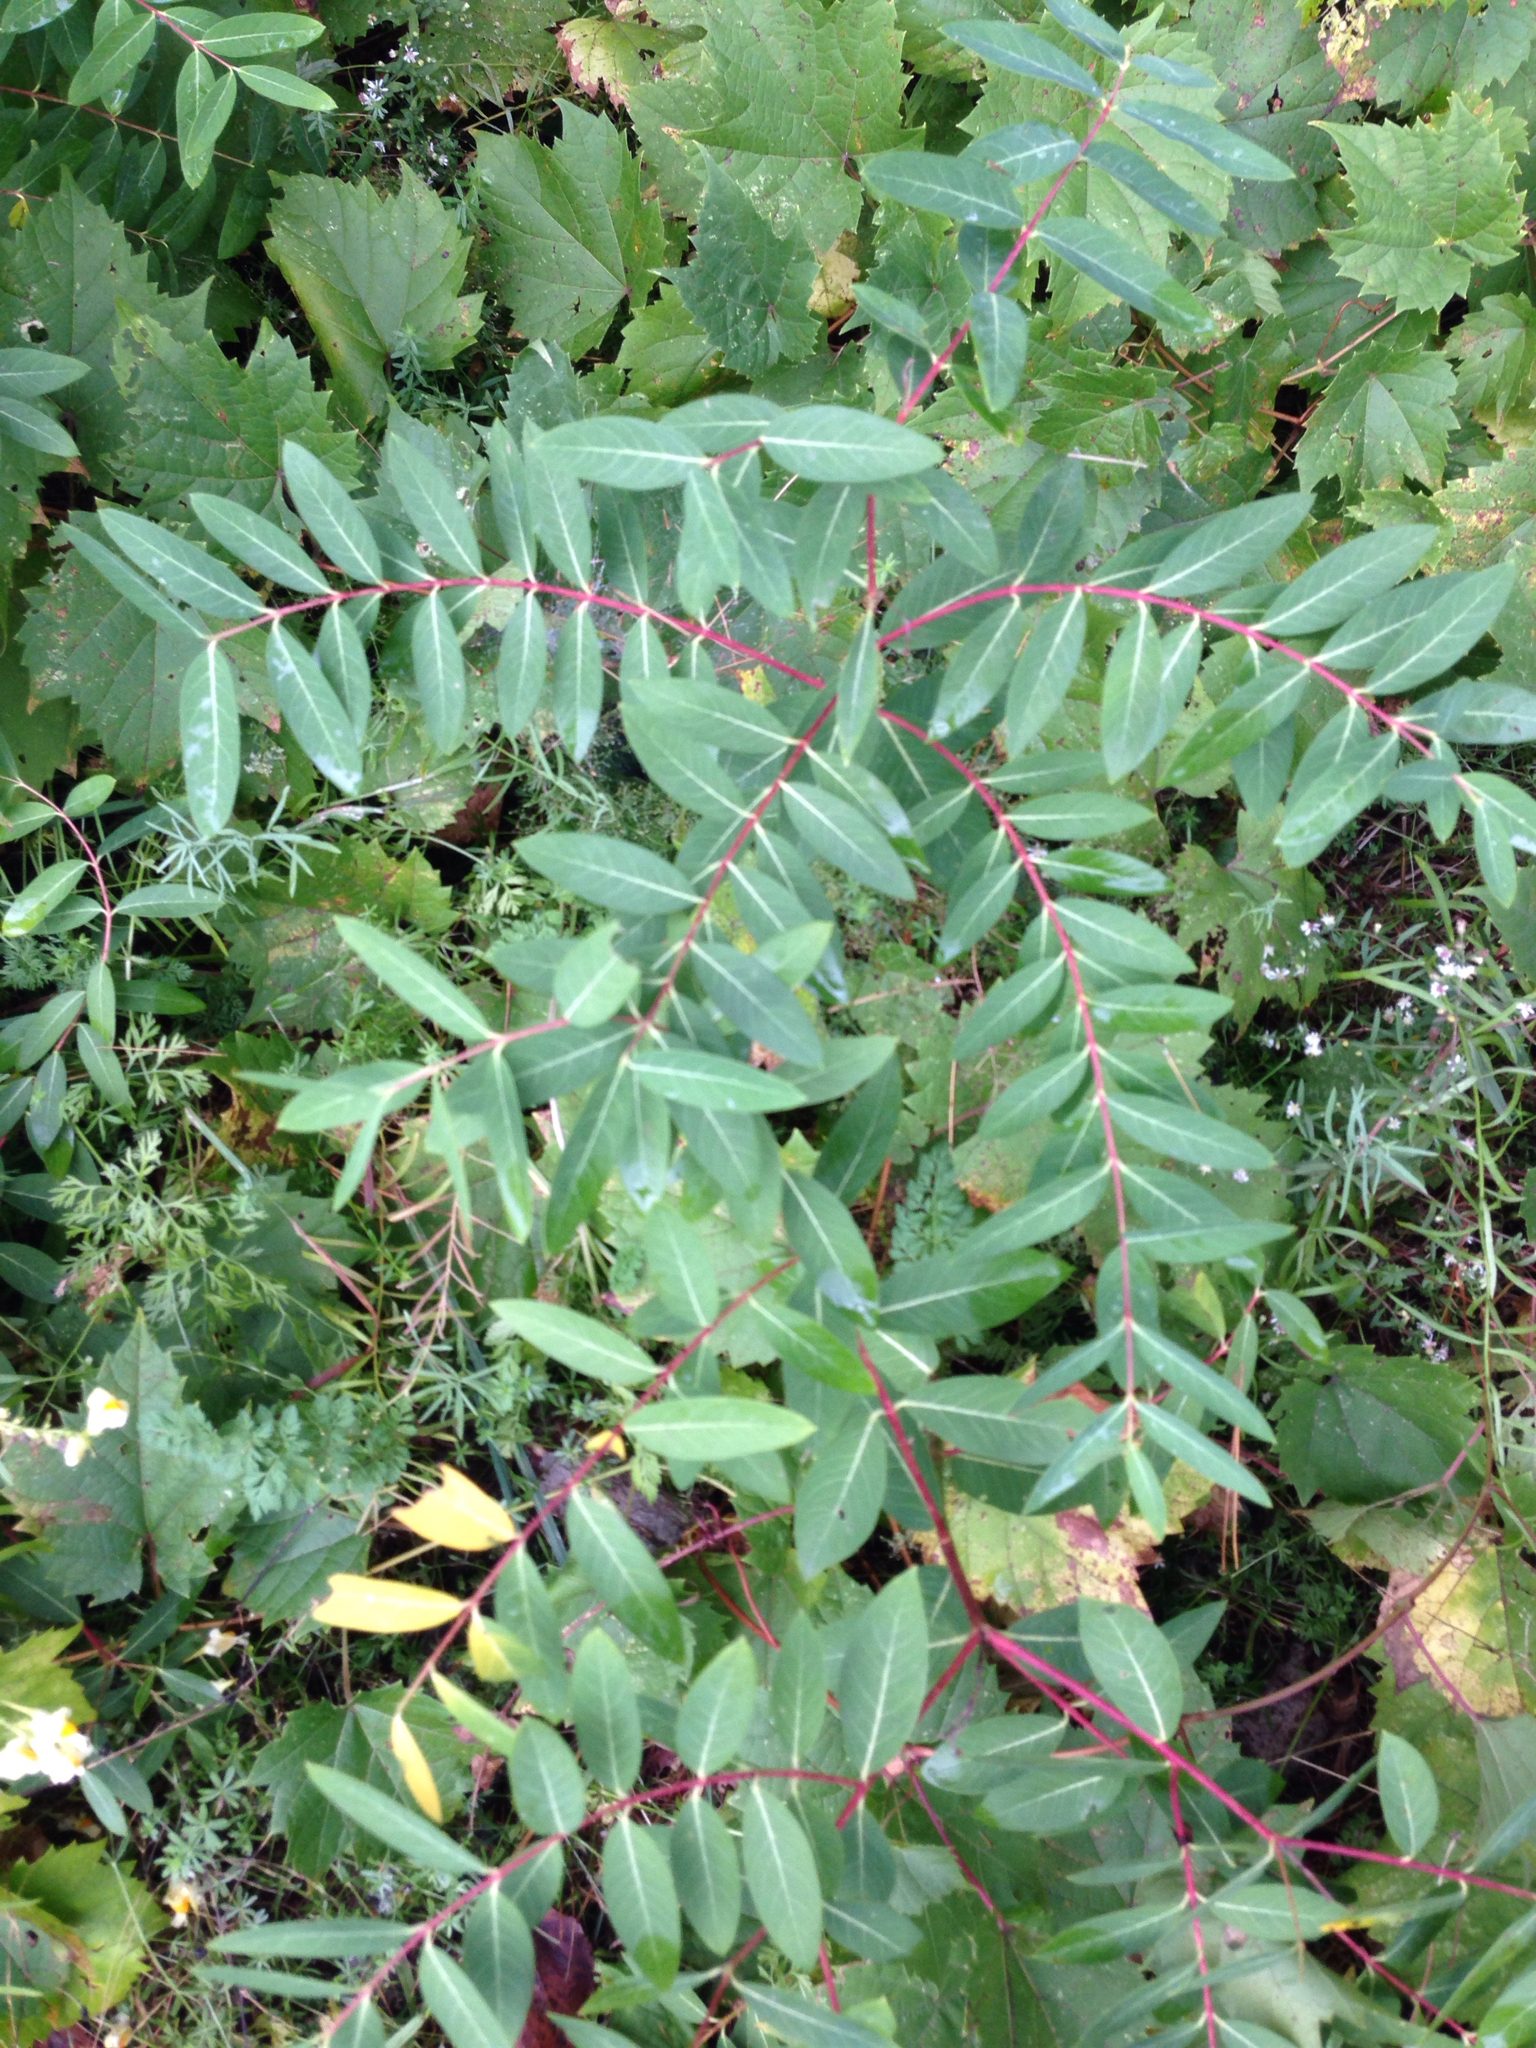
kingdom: Plantae
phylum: Tracheophyta
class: Magnoliopsida
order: Gentianales
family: Apocynaceae
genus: Apocynum
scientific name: Apocynum androsaemifolium
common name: Spreading dogbane
